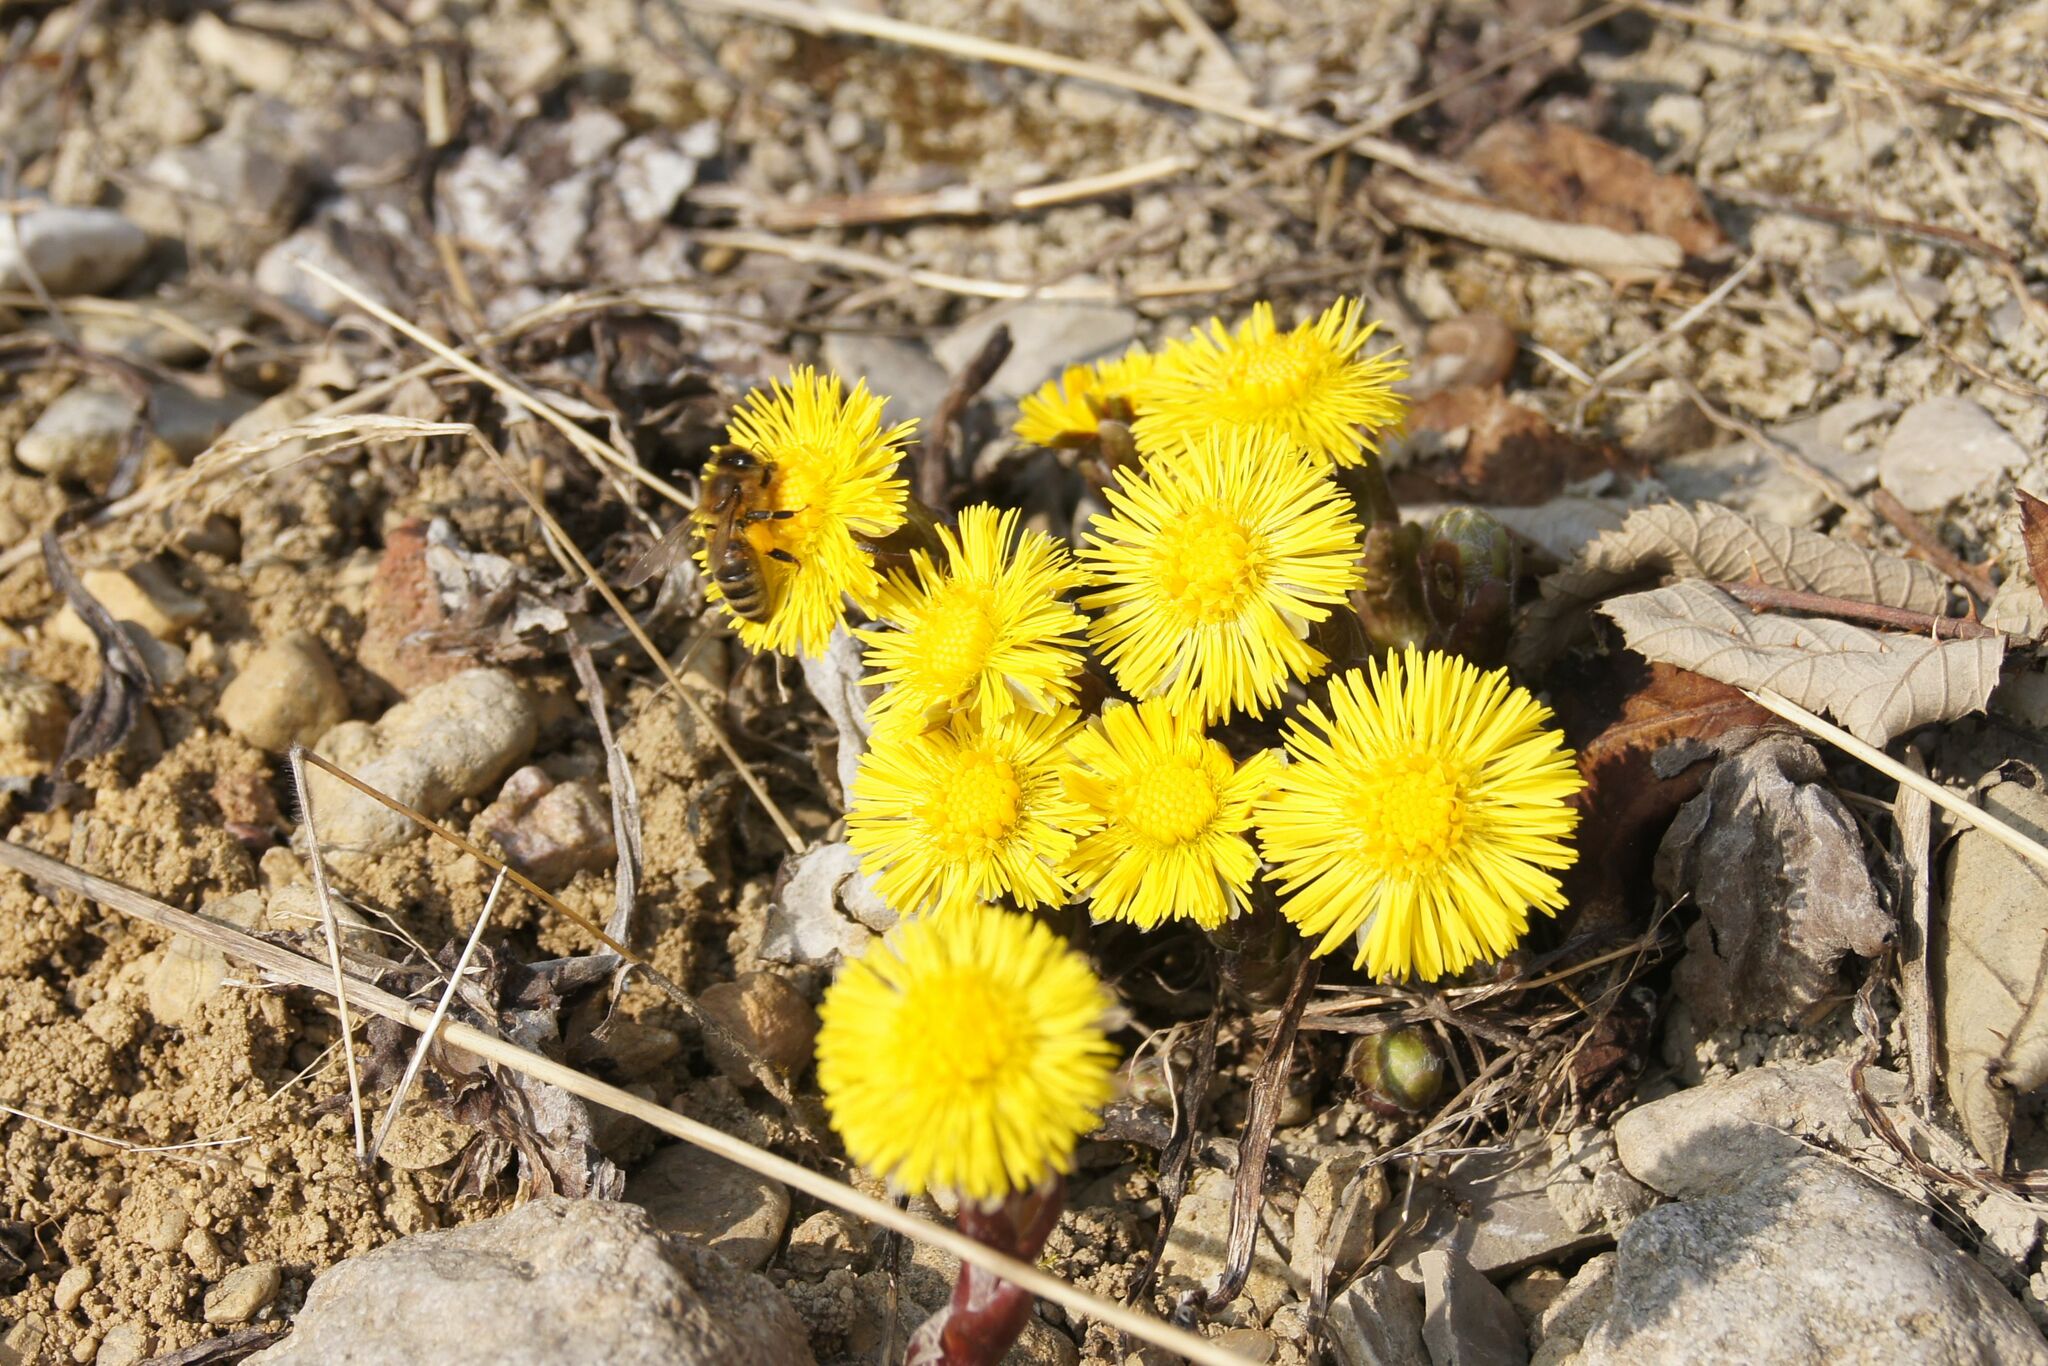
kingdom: Plantae
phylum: Tracheophyta
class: Magnoliopsida
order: Asterales
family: Asteraceae
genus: Tussilago
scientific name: Tussilago farfara
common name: Coltsfoot
